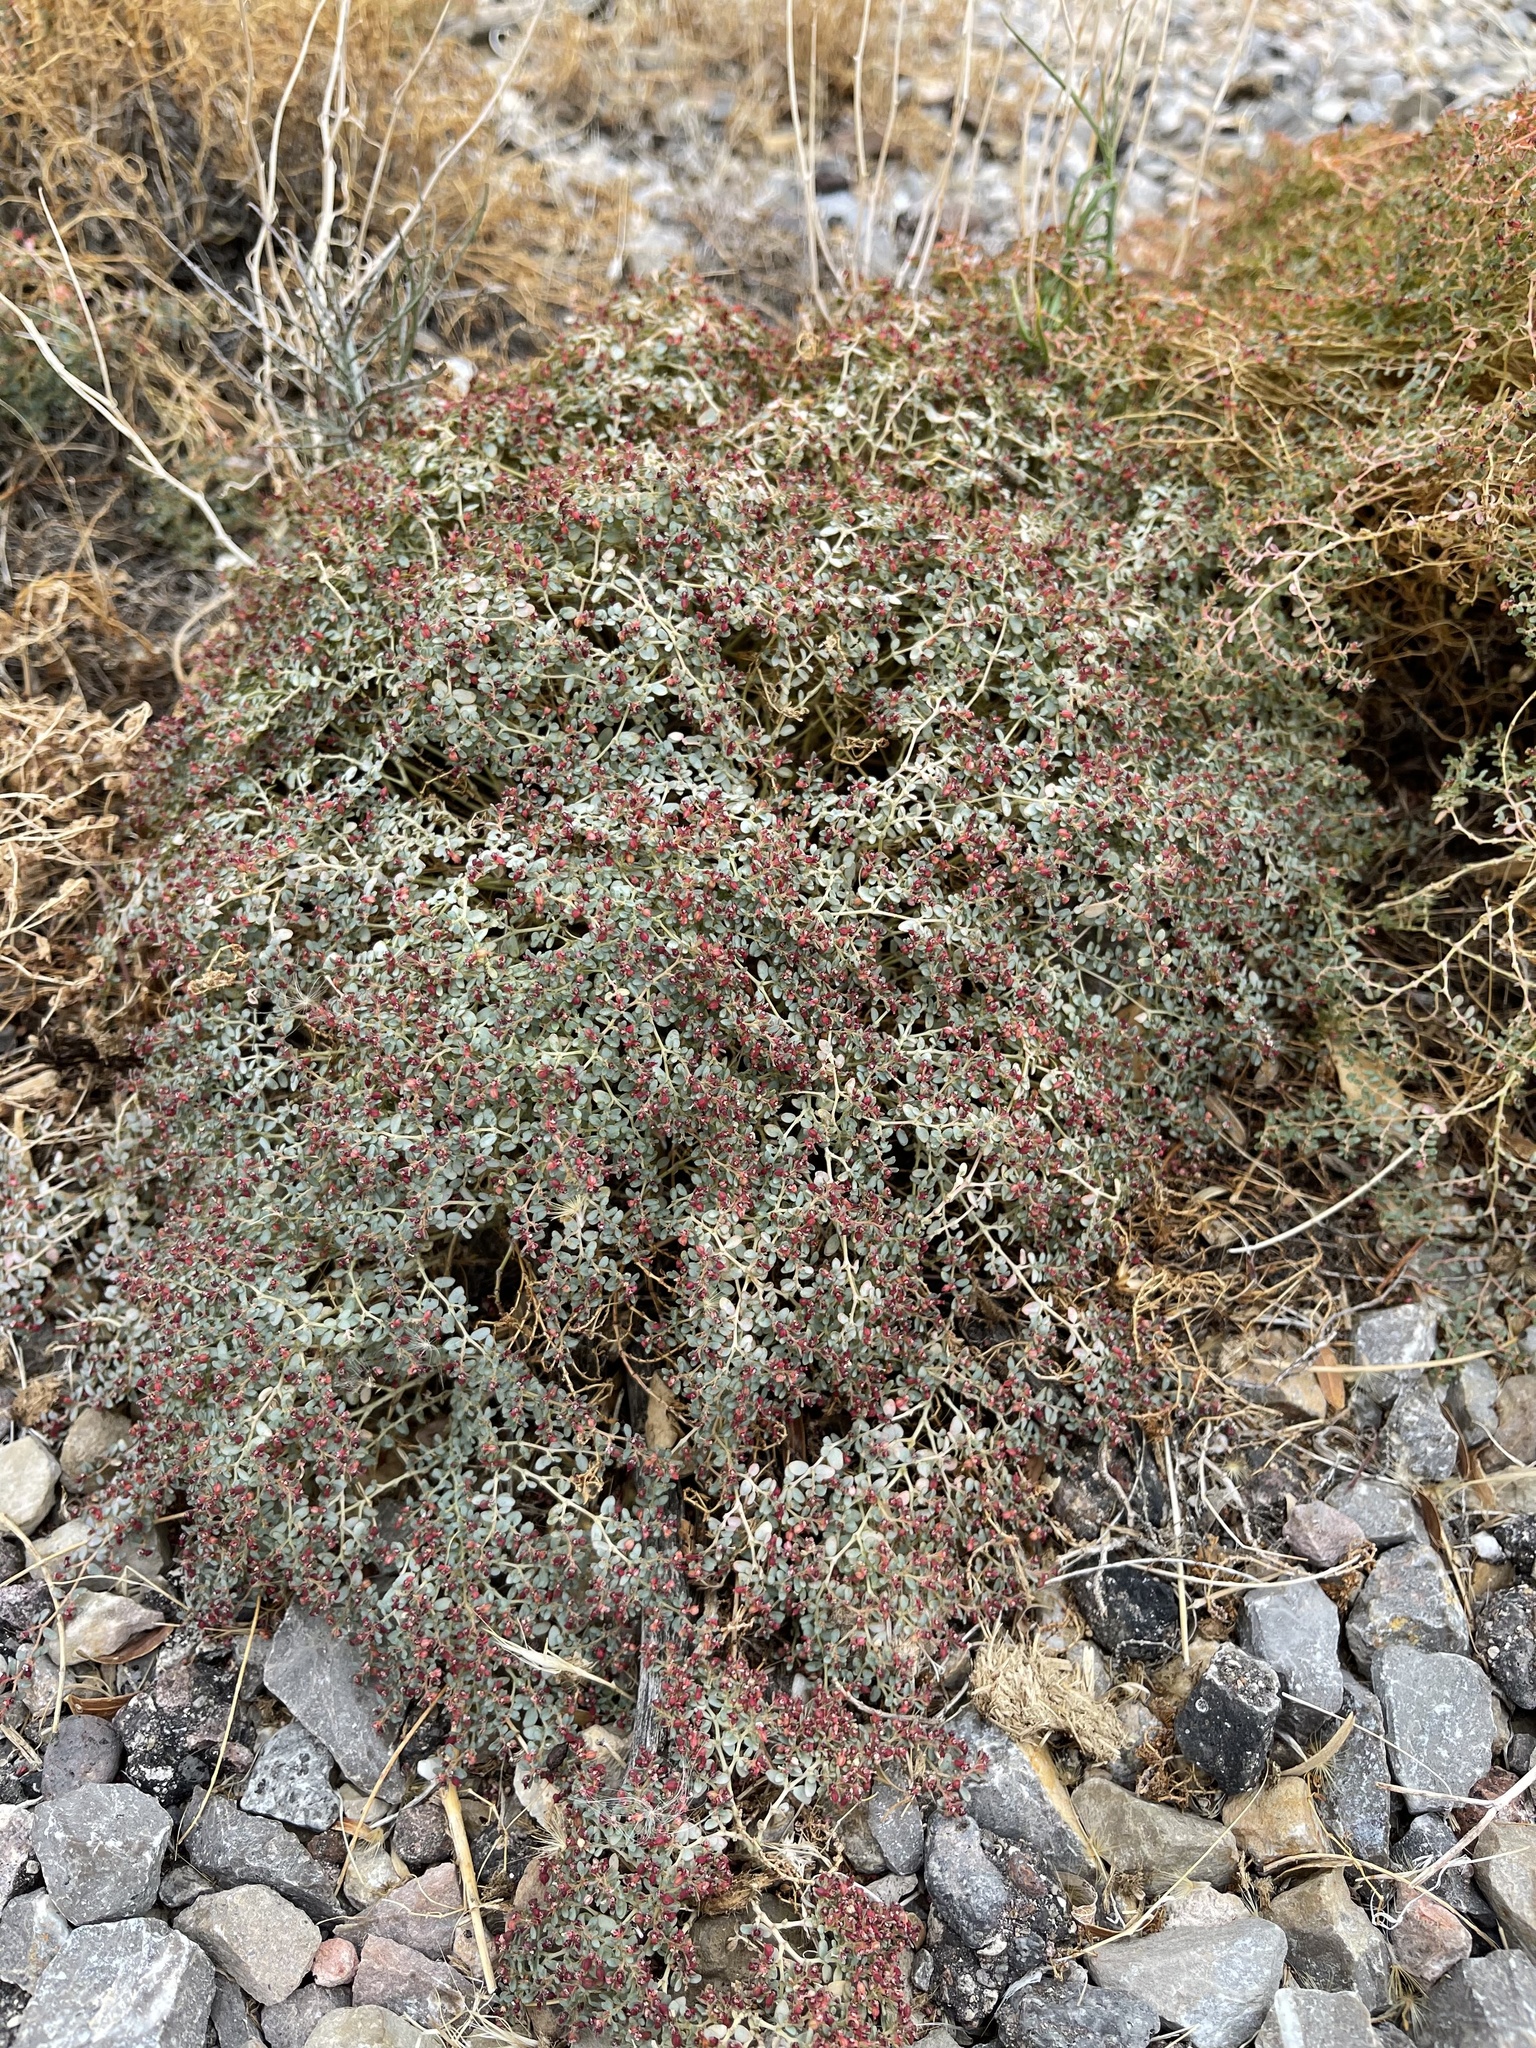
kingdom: Plantae
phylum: Tracheophyta
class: Magnoliopsida
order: Malpighiales
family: Euphorbiaceae
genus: Euphorbia
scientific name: Euphorbia polycarpa
